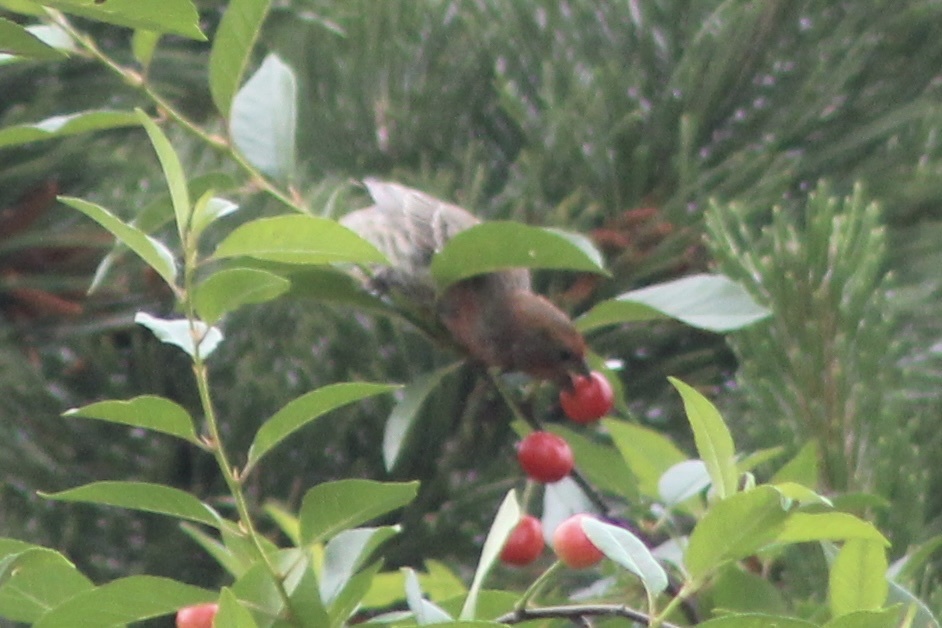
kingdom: Animalia
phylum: Chordata
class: Aves
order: Passeriformes
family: Fringillidae
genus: Haemorhous
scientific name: Haemorhous mexicanus
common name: House finch
